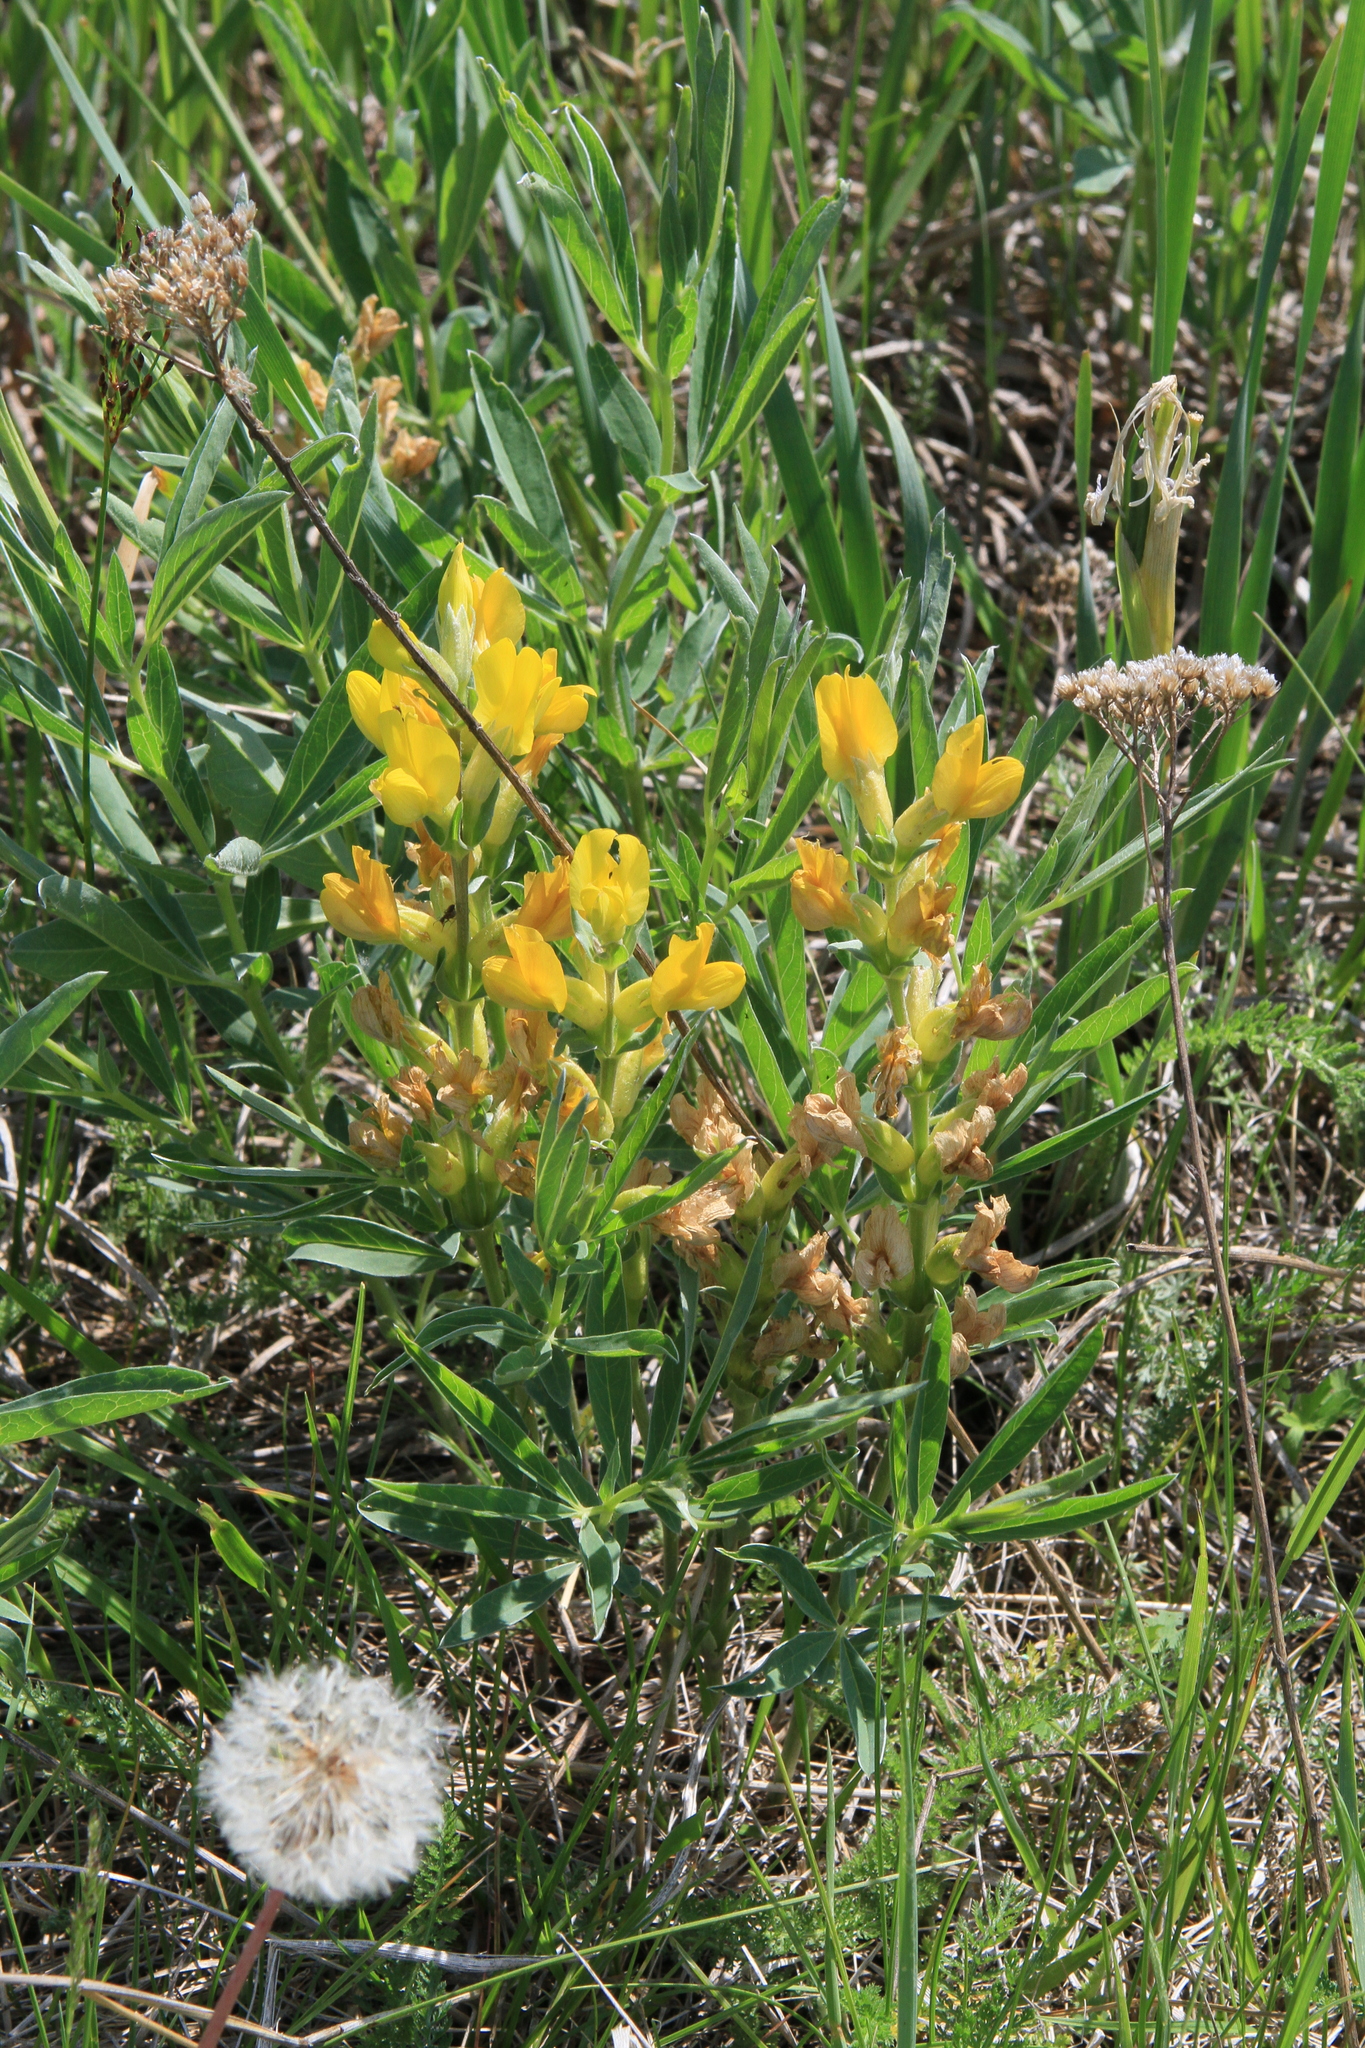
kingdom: Plantae
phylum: Tracheophyta
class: Magnoliopsida
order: Fabales
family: Fabaceae
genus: Thermopsis
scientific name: Thermopsis lanceolata
